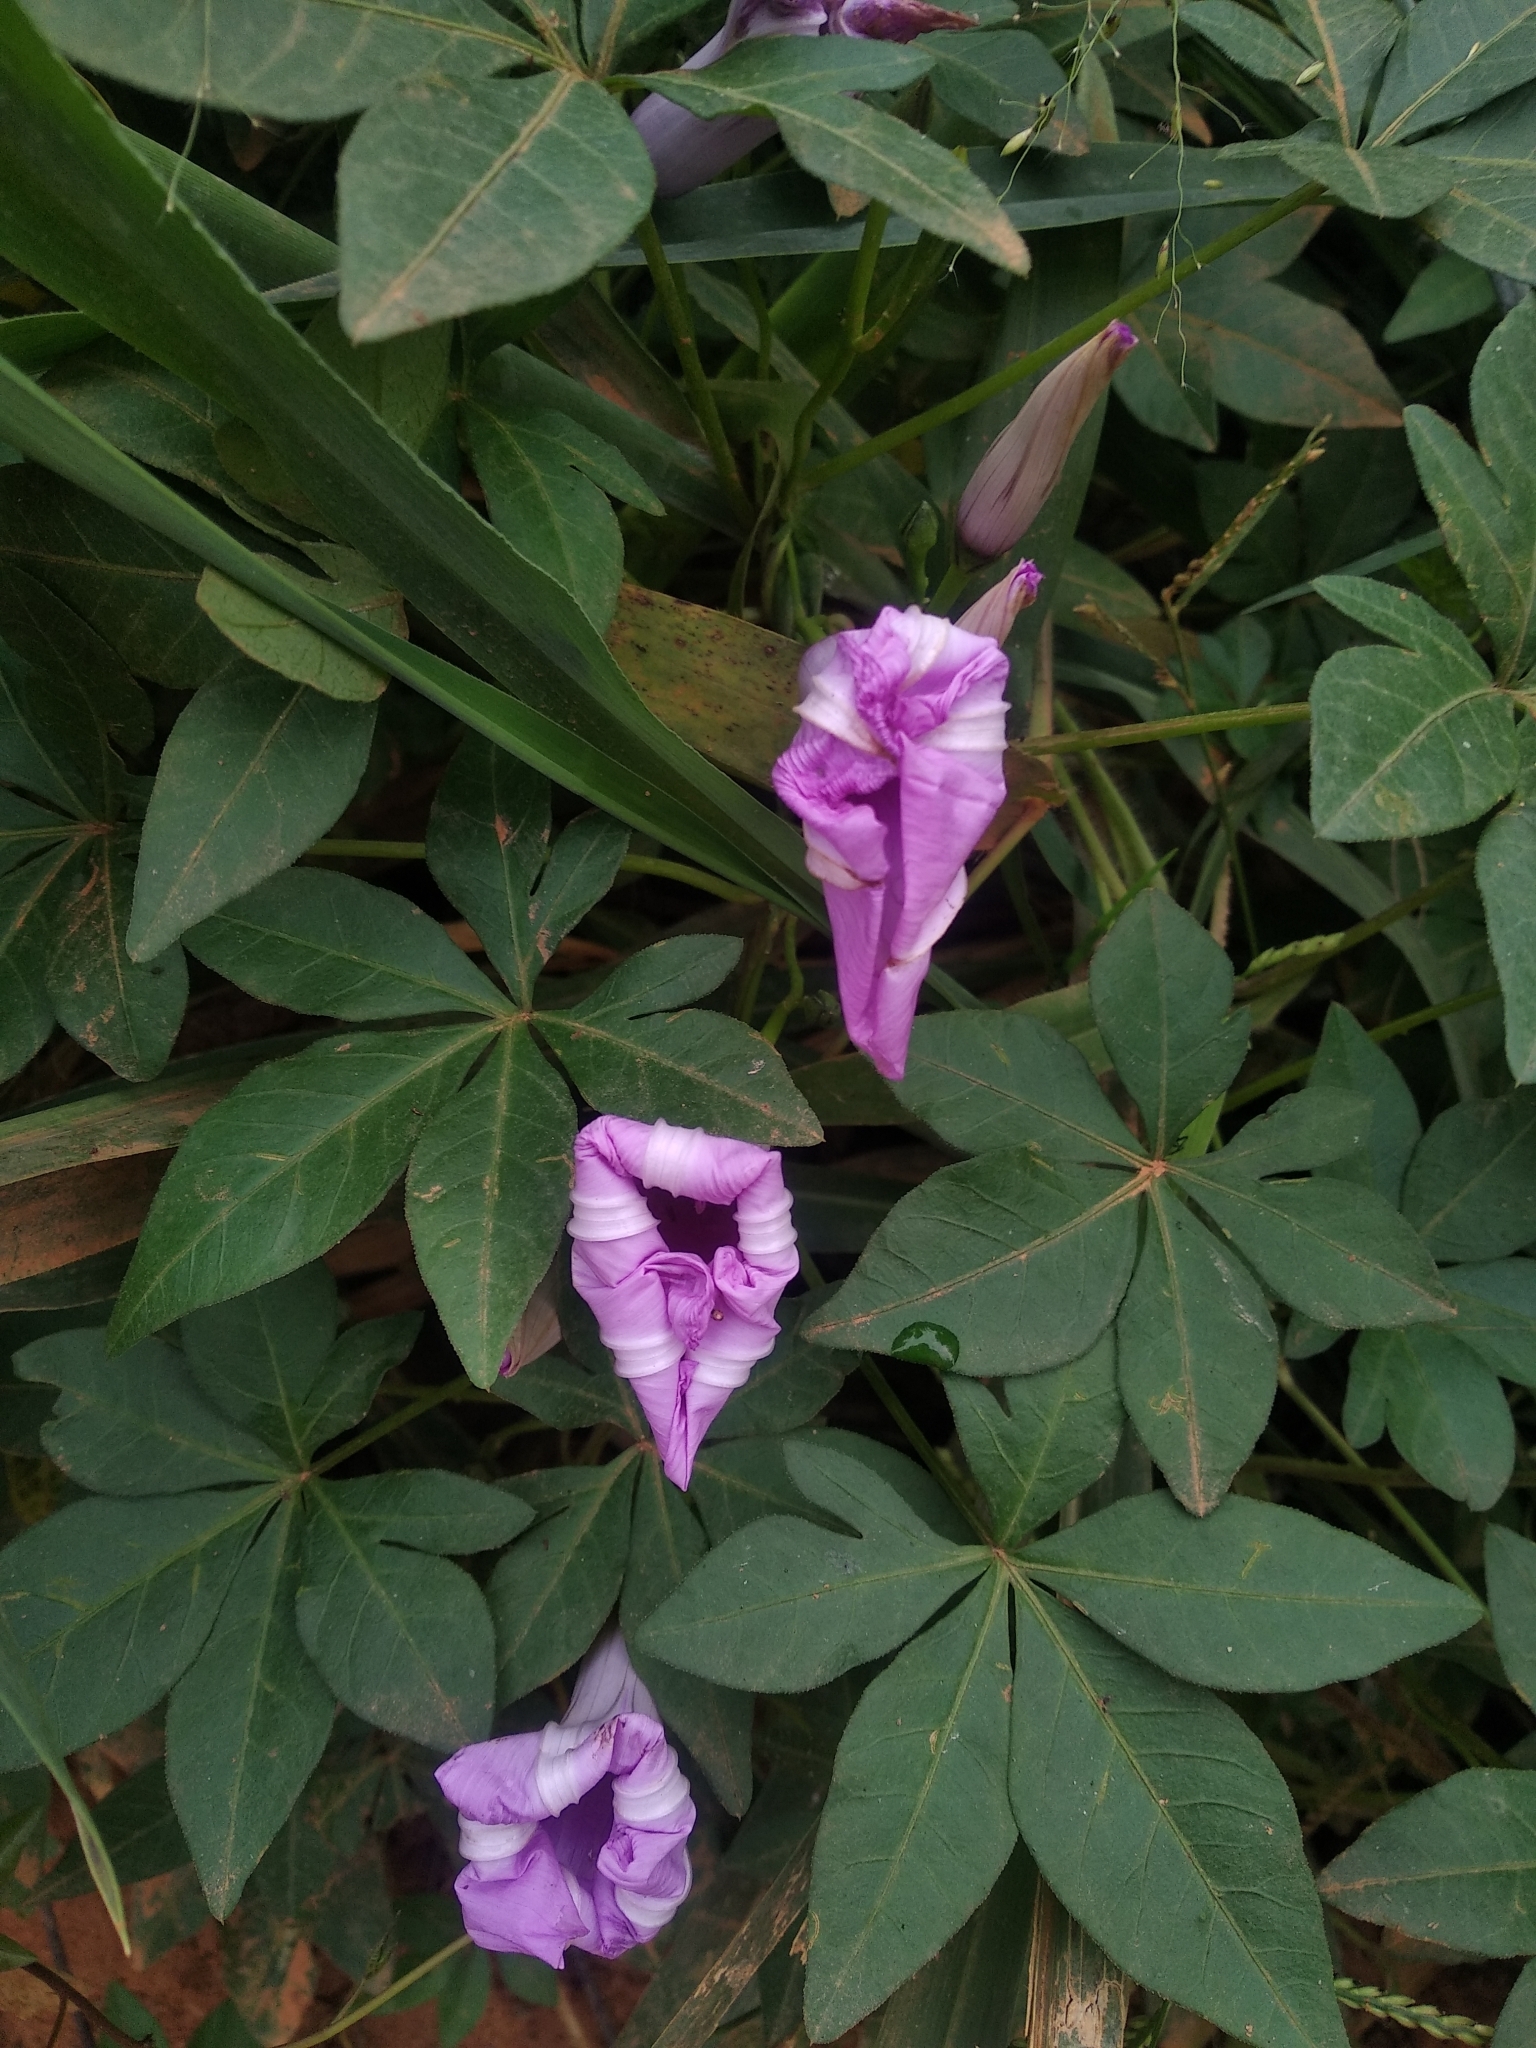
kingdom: Plantae
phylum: Tracheophyta
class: Magnoliopsida
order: Solanales
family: Convolvulaceae
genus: Ipomoea
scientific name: Ipomoea cairica
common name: Mile a minute vine
